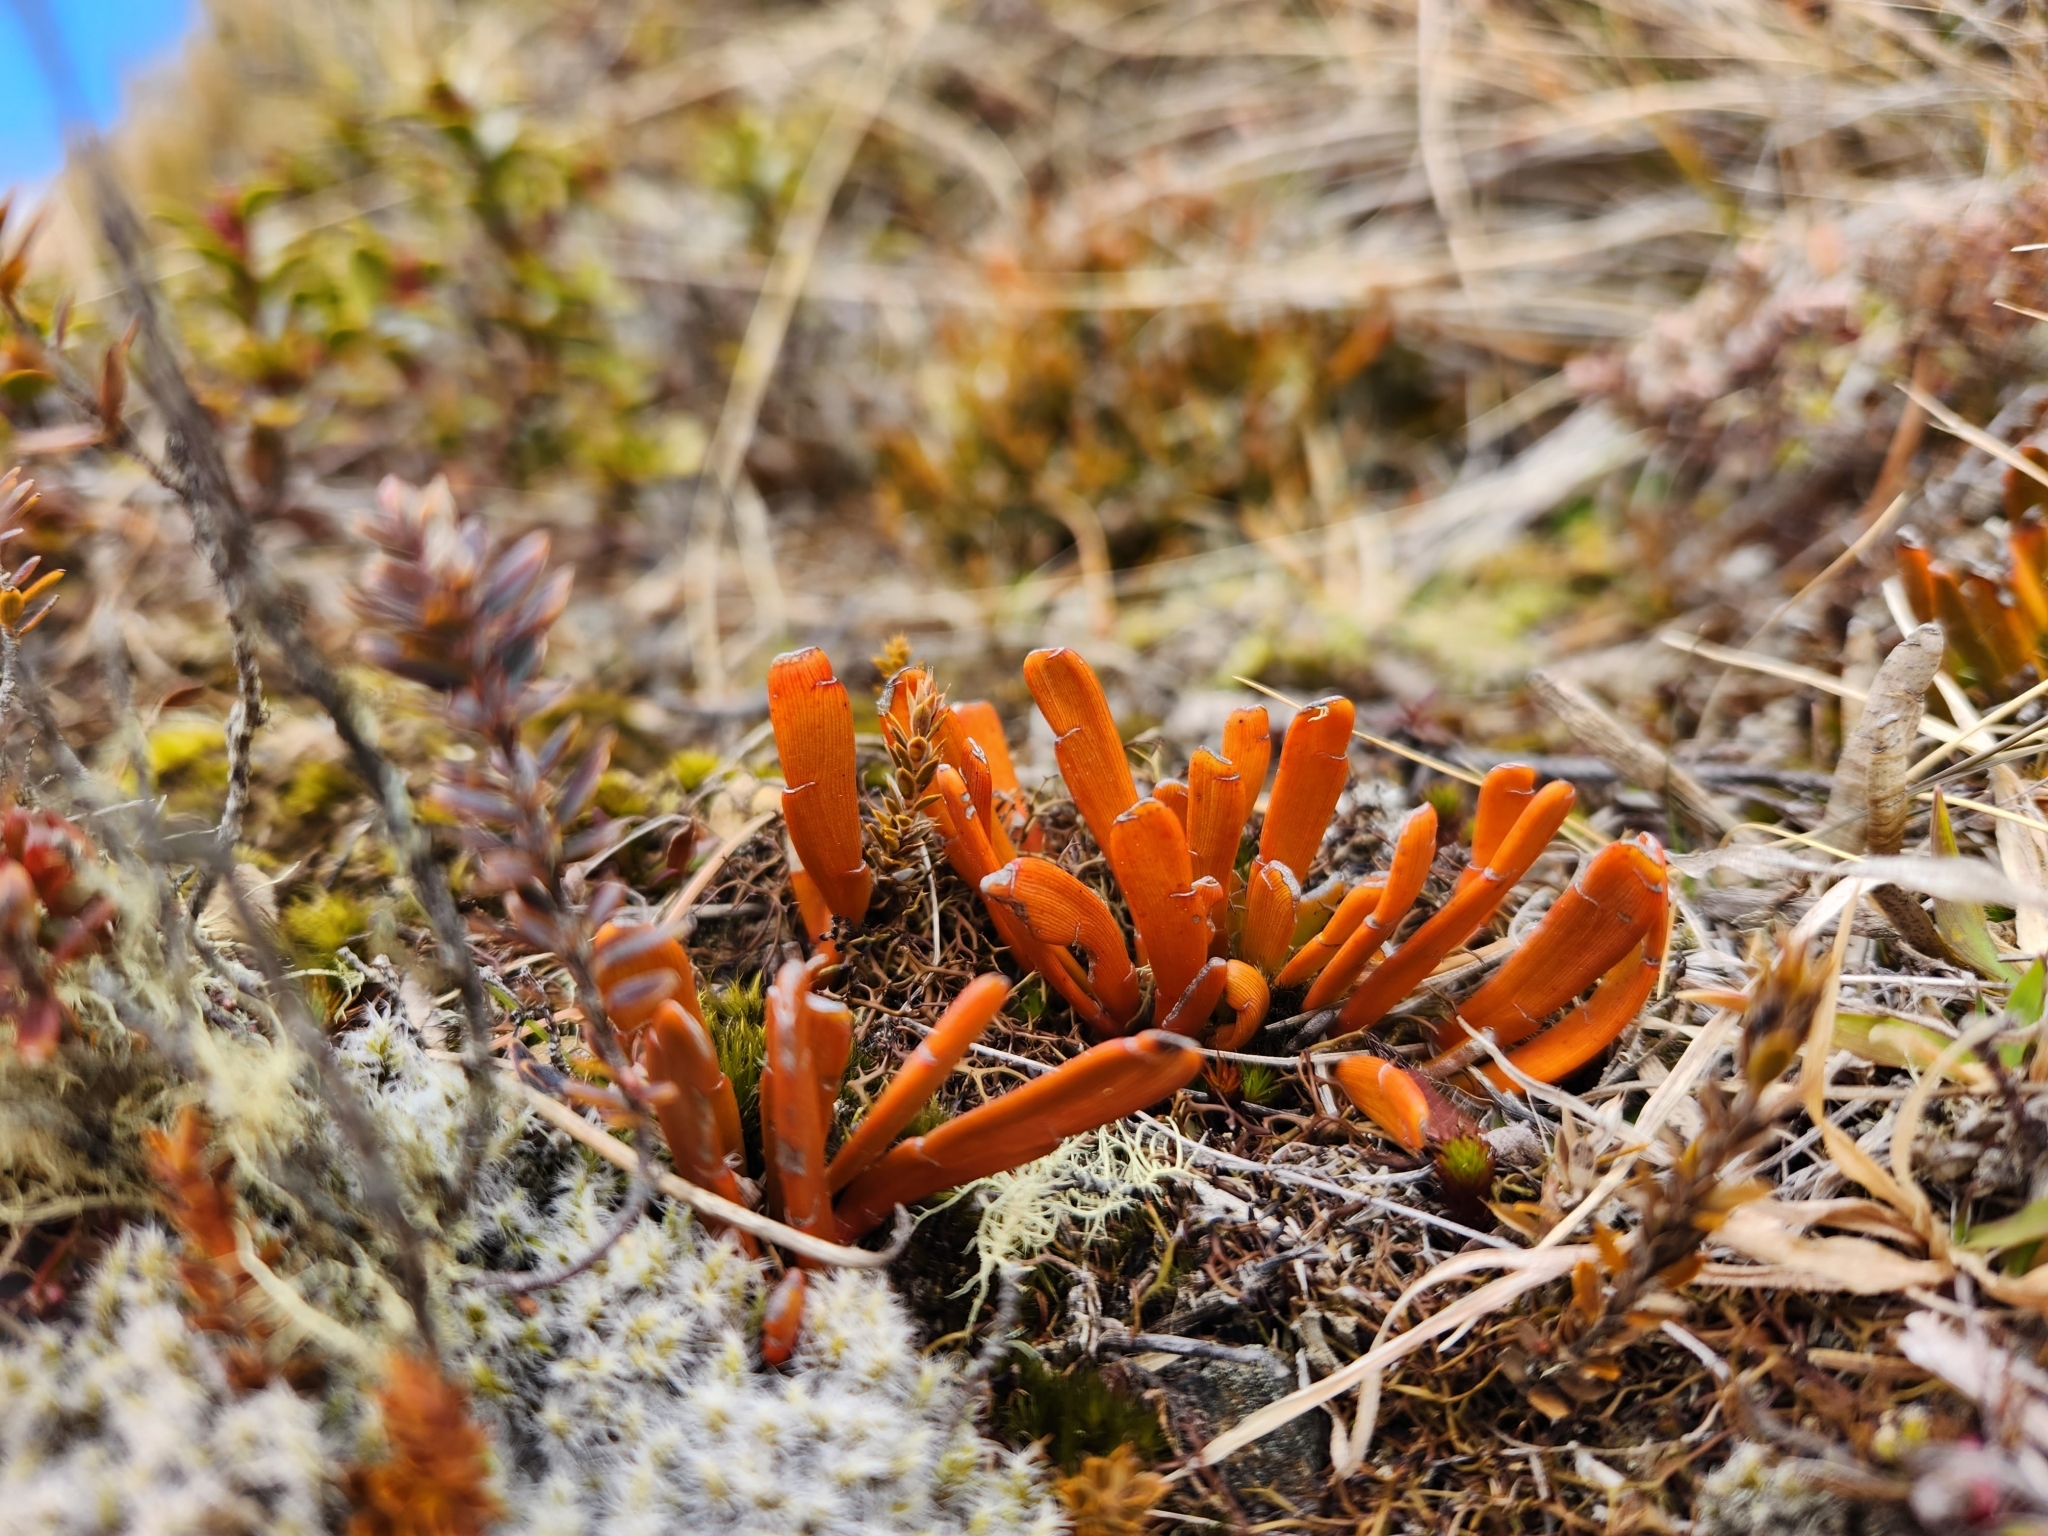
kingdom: Plantae
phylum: Tracheophyta
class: Magnoliopsida
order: Fabales
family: Fabaceae
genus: Carmichaelia
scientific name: Carmichaelia monroi
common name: Stout dwarf broom
